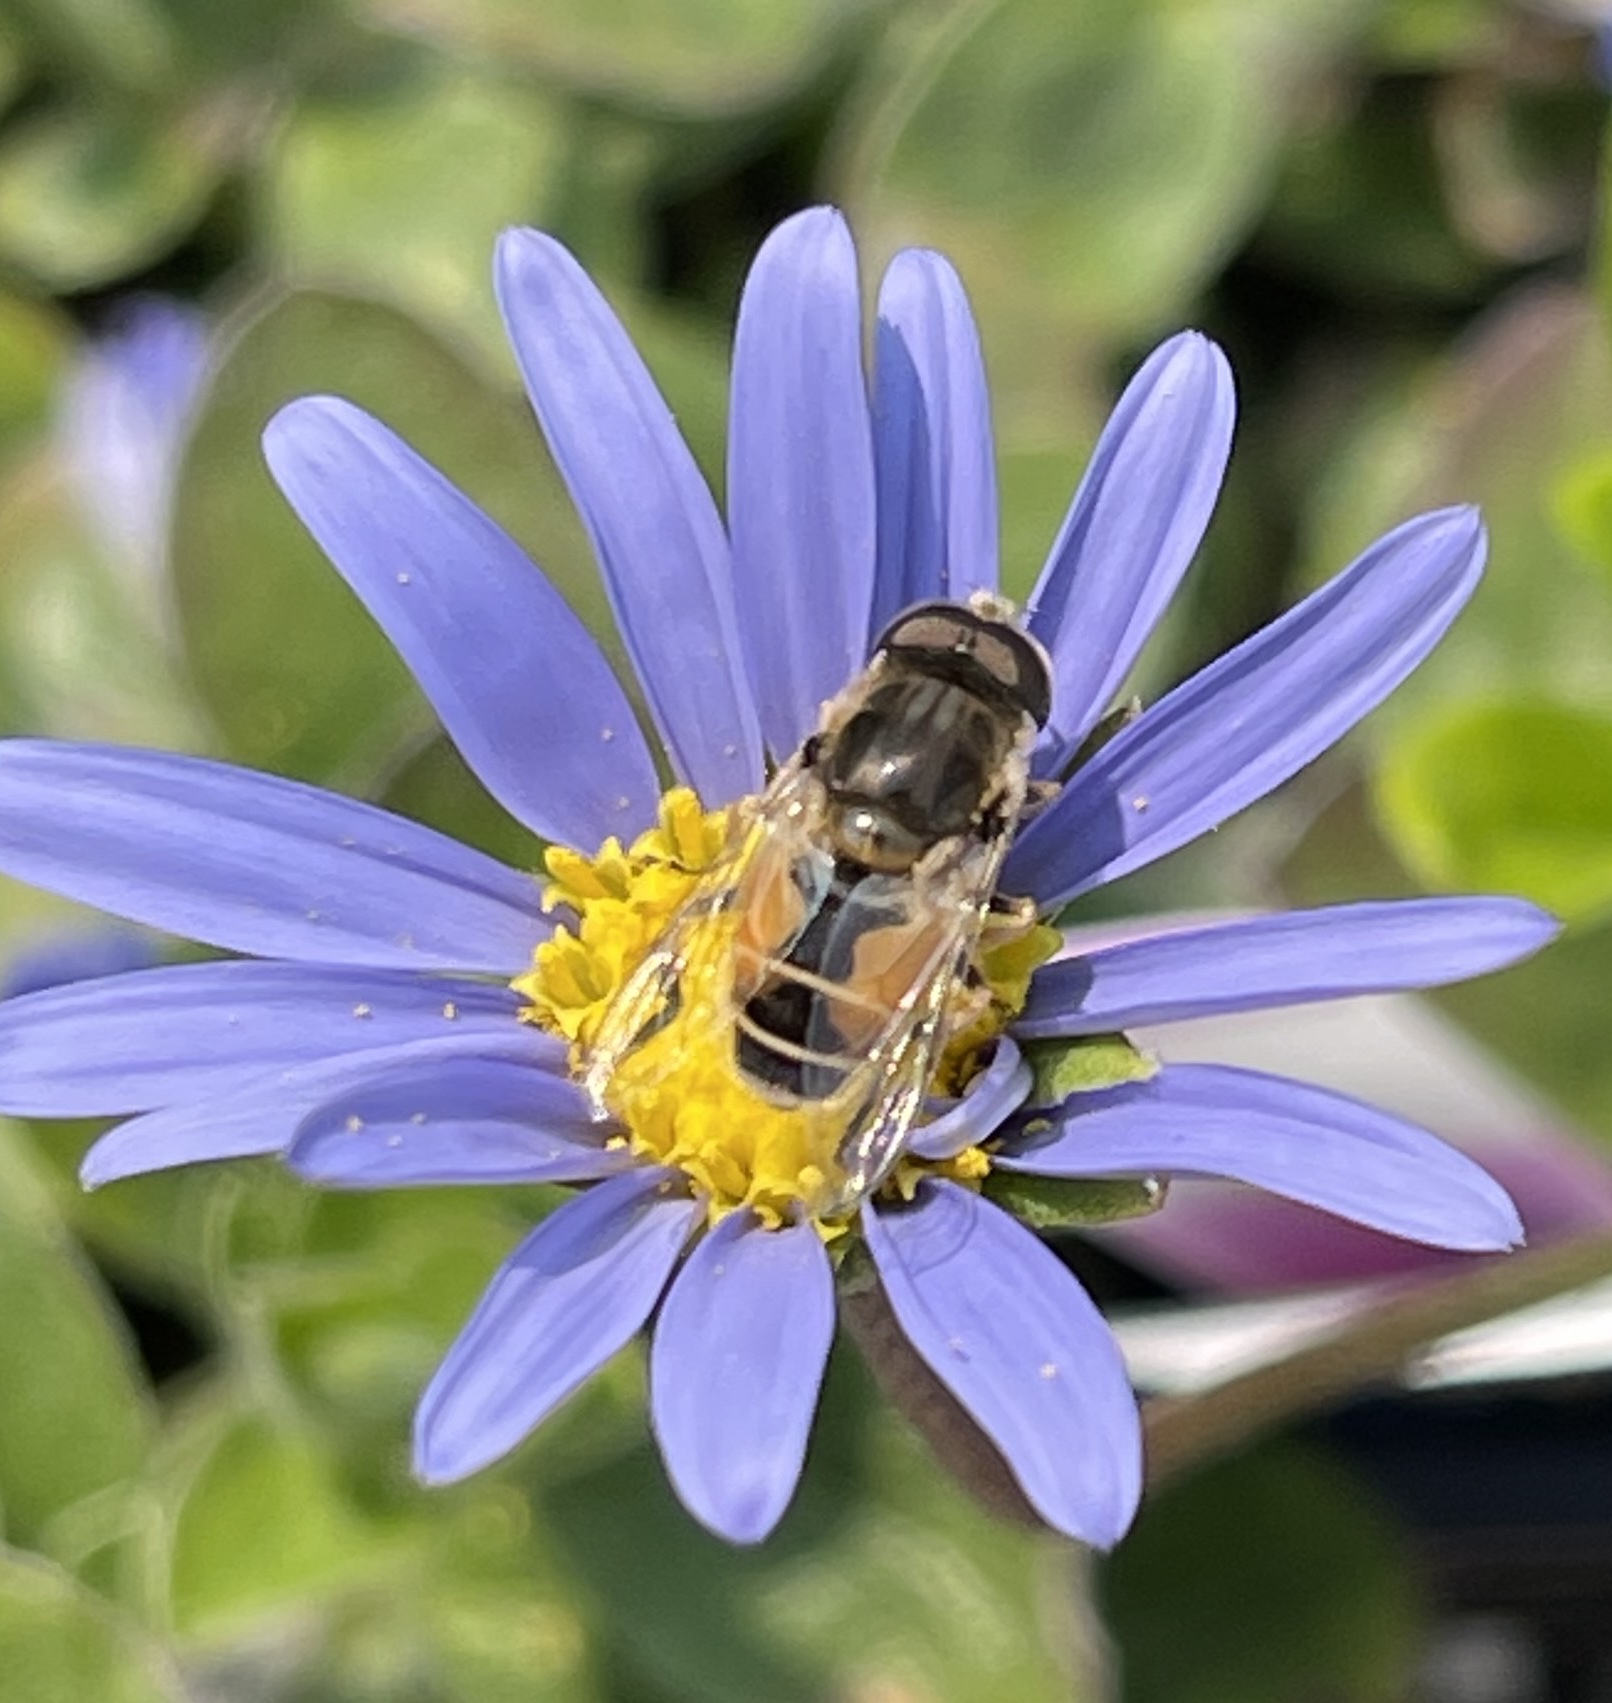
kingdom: Animalia
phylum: Arthropoda
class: Insecta
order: Diptera
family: Syrphidae
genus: Eristalis
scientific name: Eristalis arbustorum
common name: Hover fly
